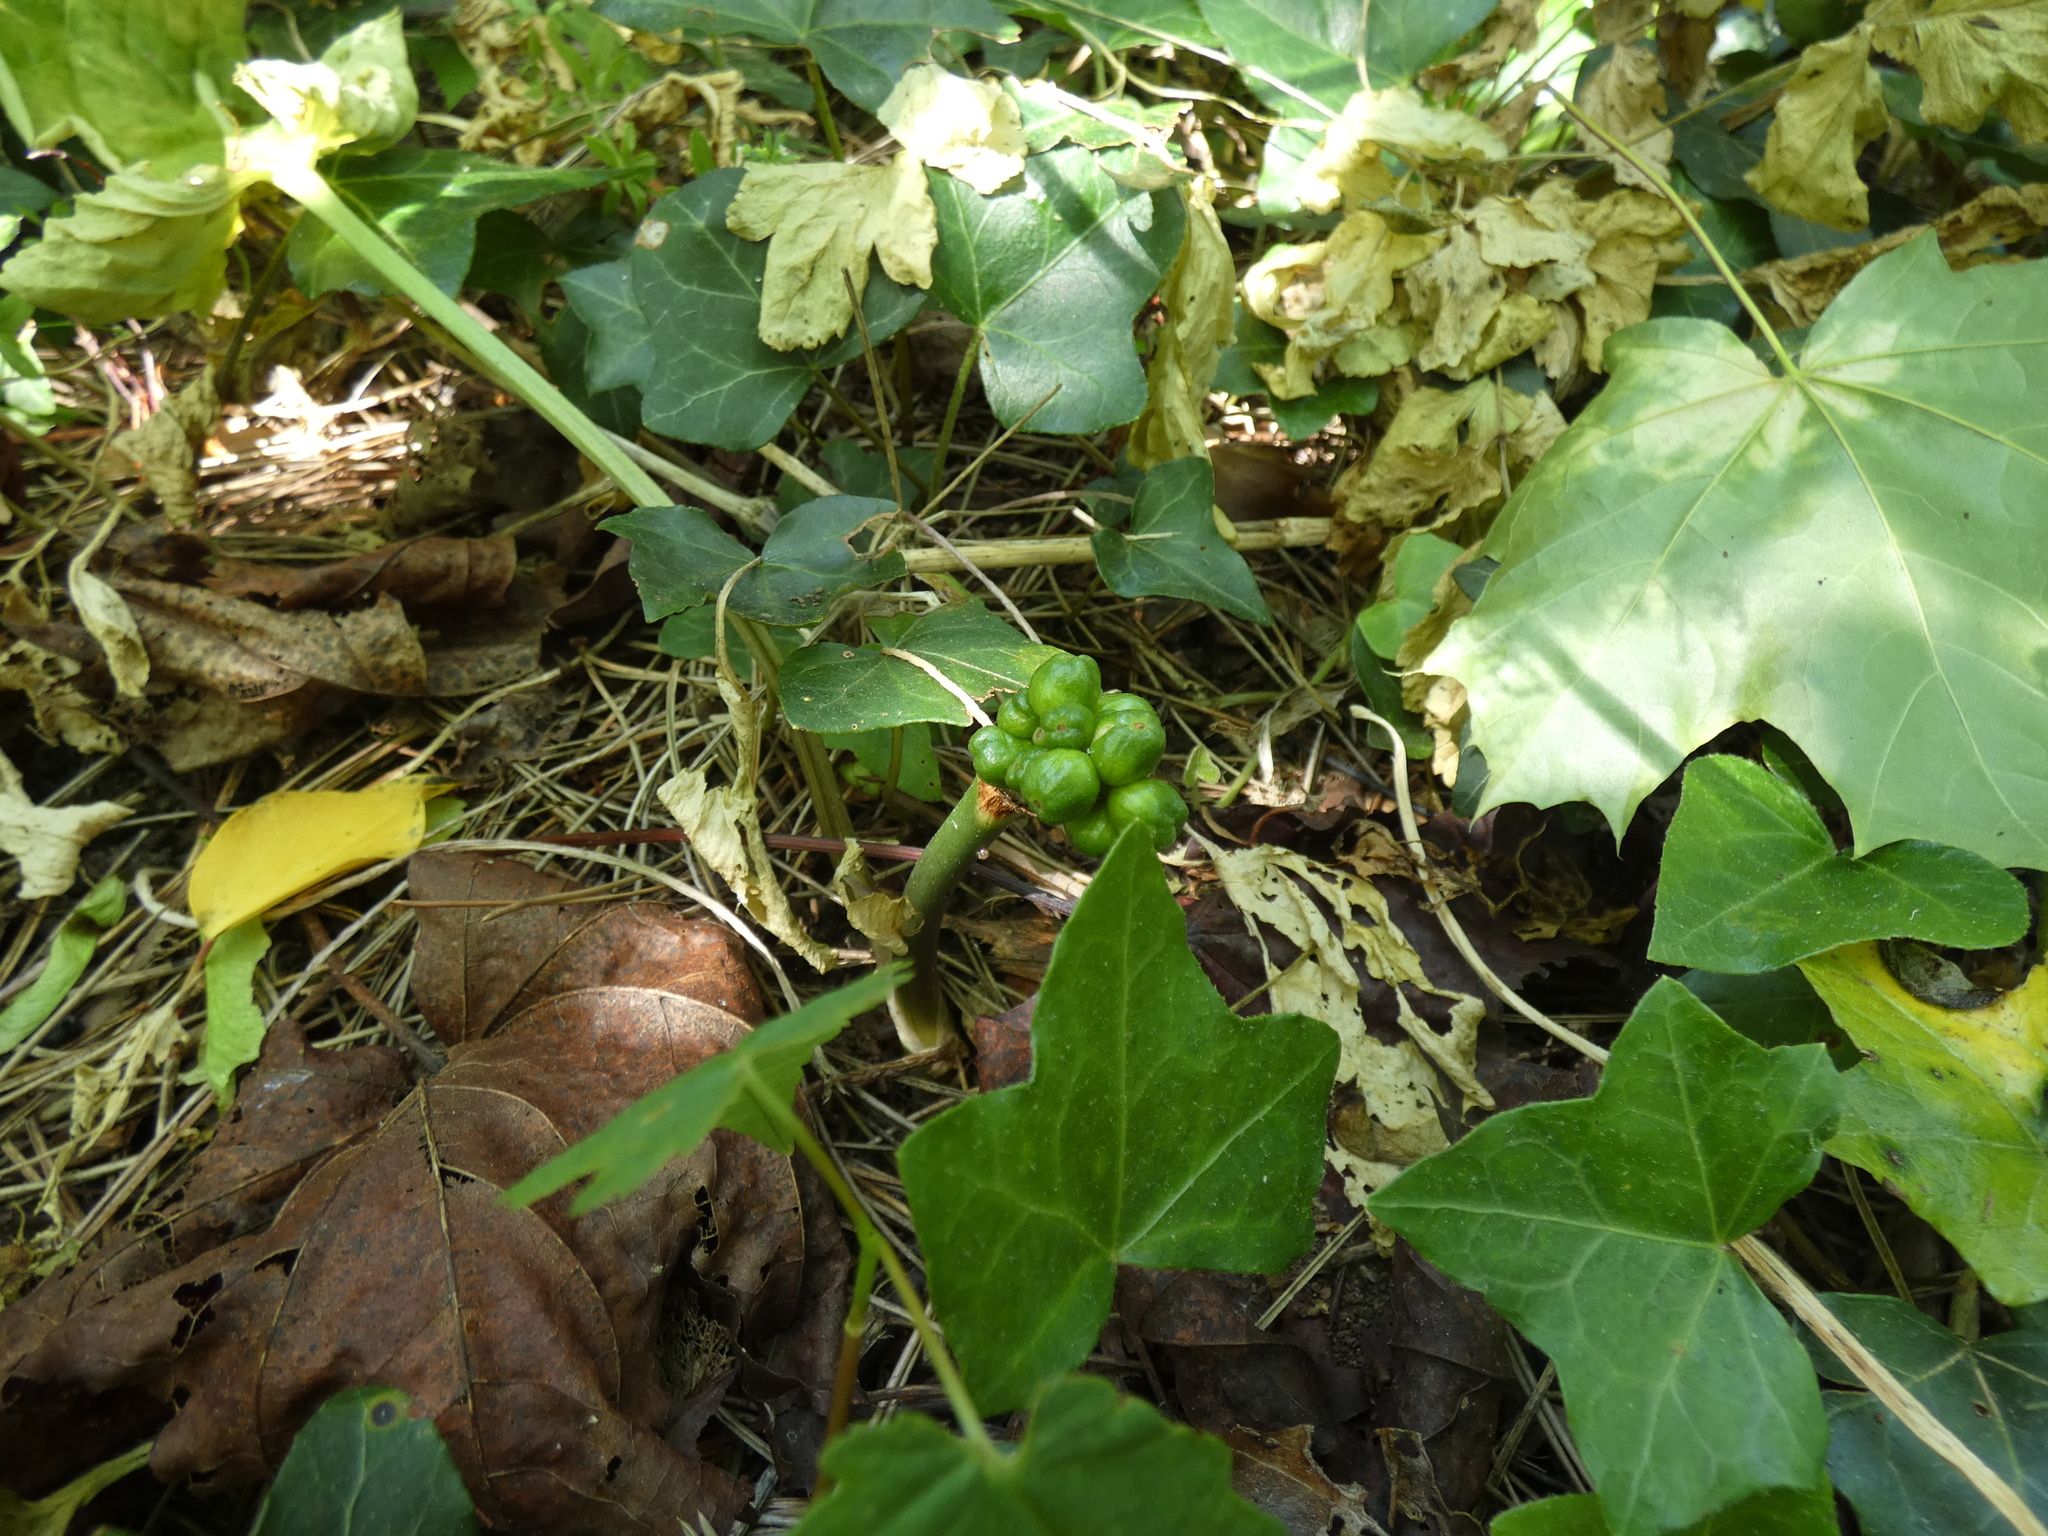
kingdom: Plantae
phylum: Tracheophyta
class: Liliopsida
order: Alismatales
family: Araceae
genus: Arum
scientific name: Arum maculatum
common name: Lords-and-ladies
